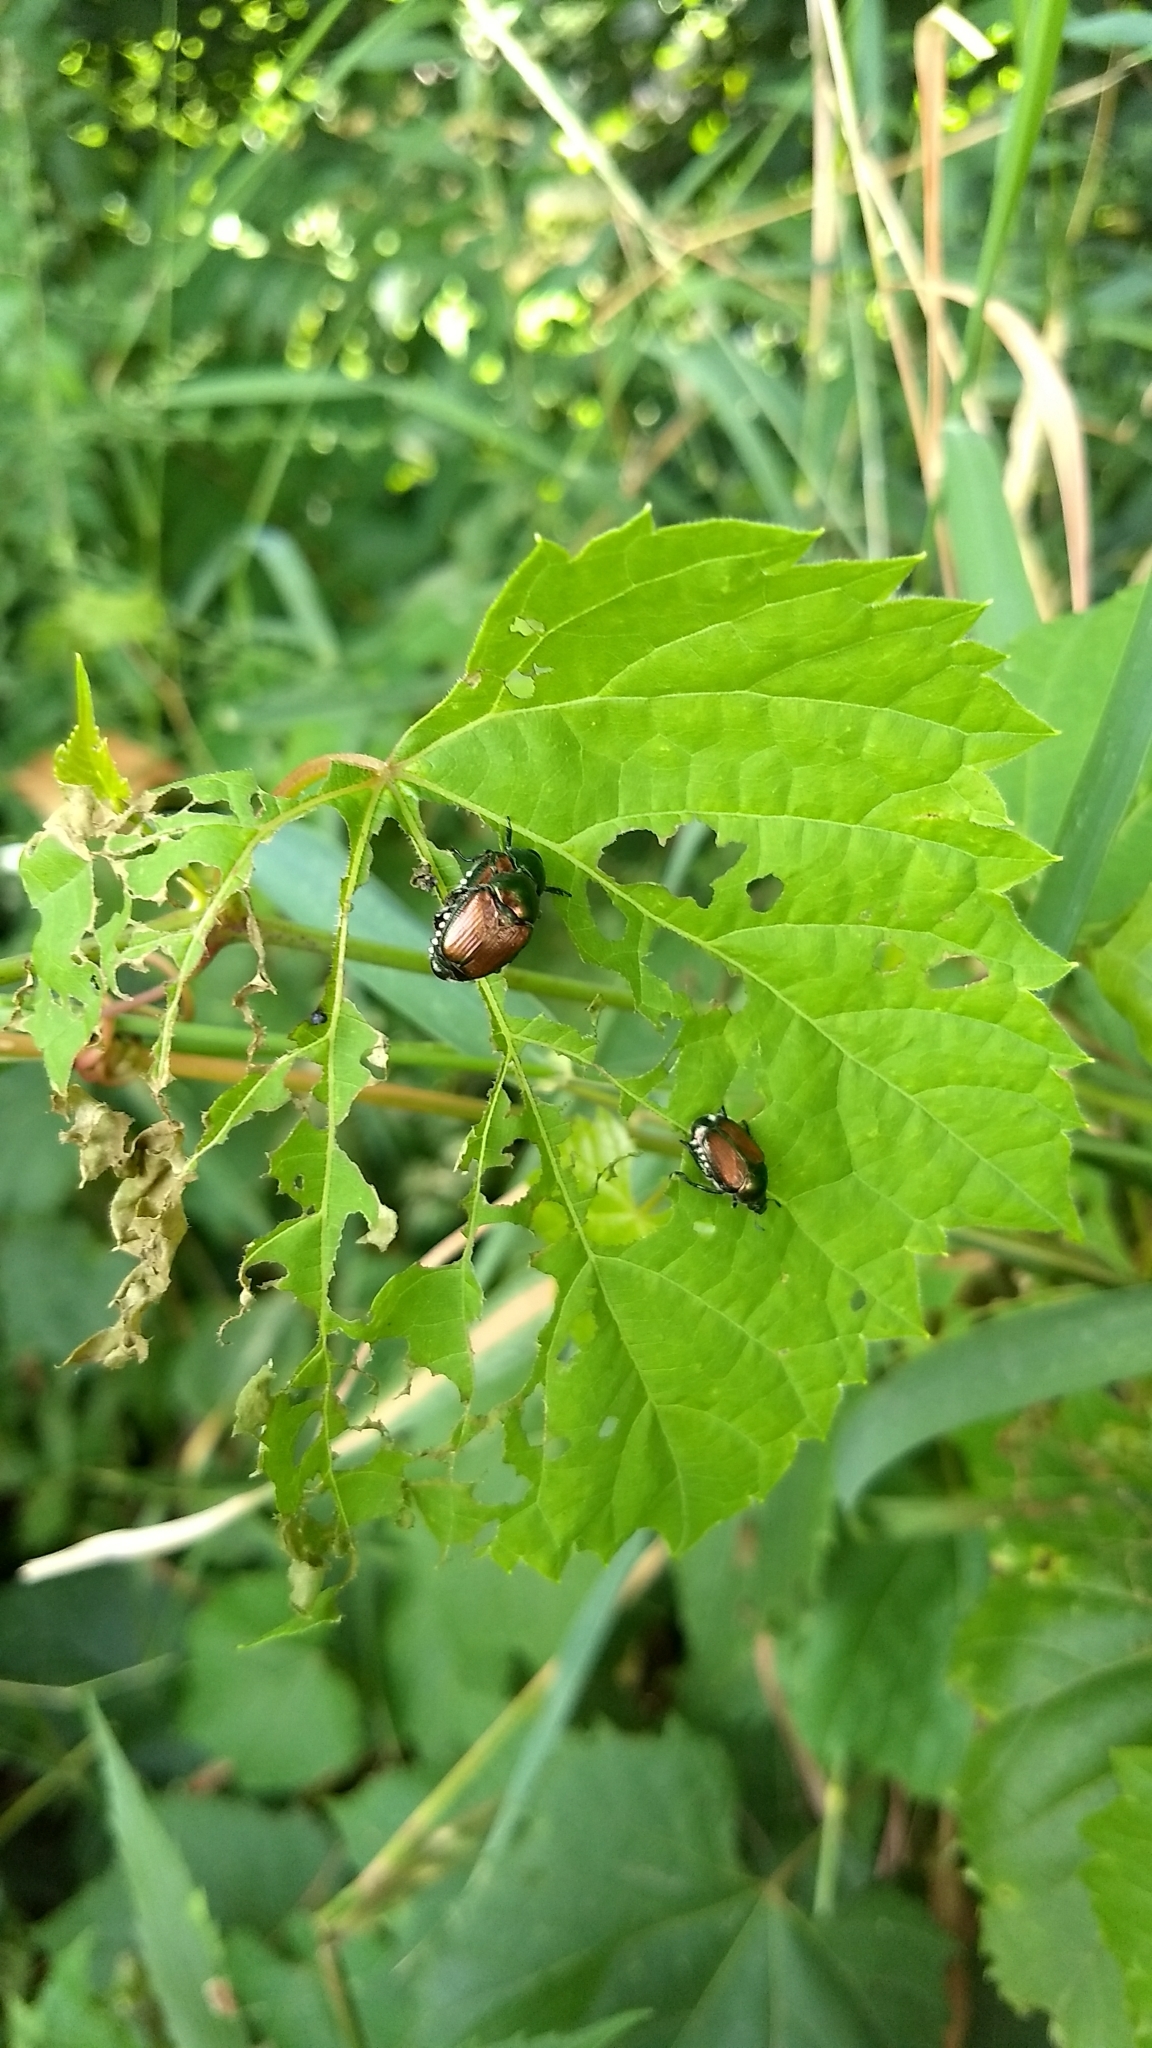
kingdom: Animalia
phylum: Arthropoda
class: Insecta
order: Coleoptera
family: Scarabaeidae
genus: Popillia
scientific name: Popillia japonica
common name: Japanese beetle
